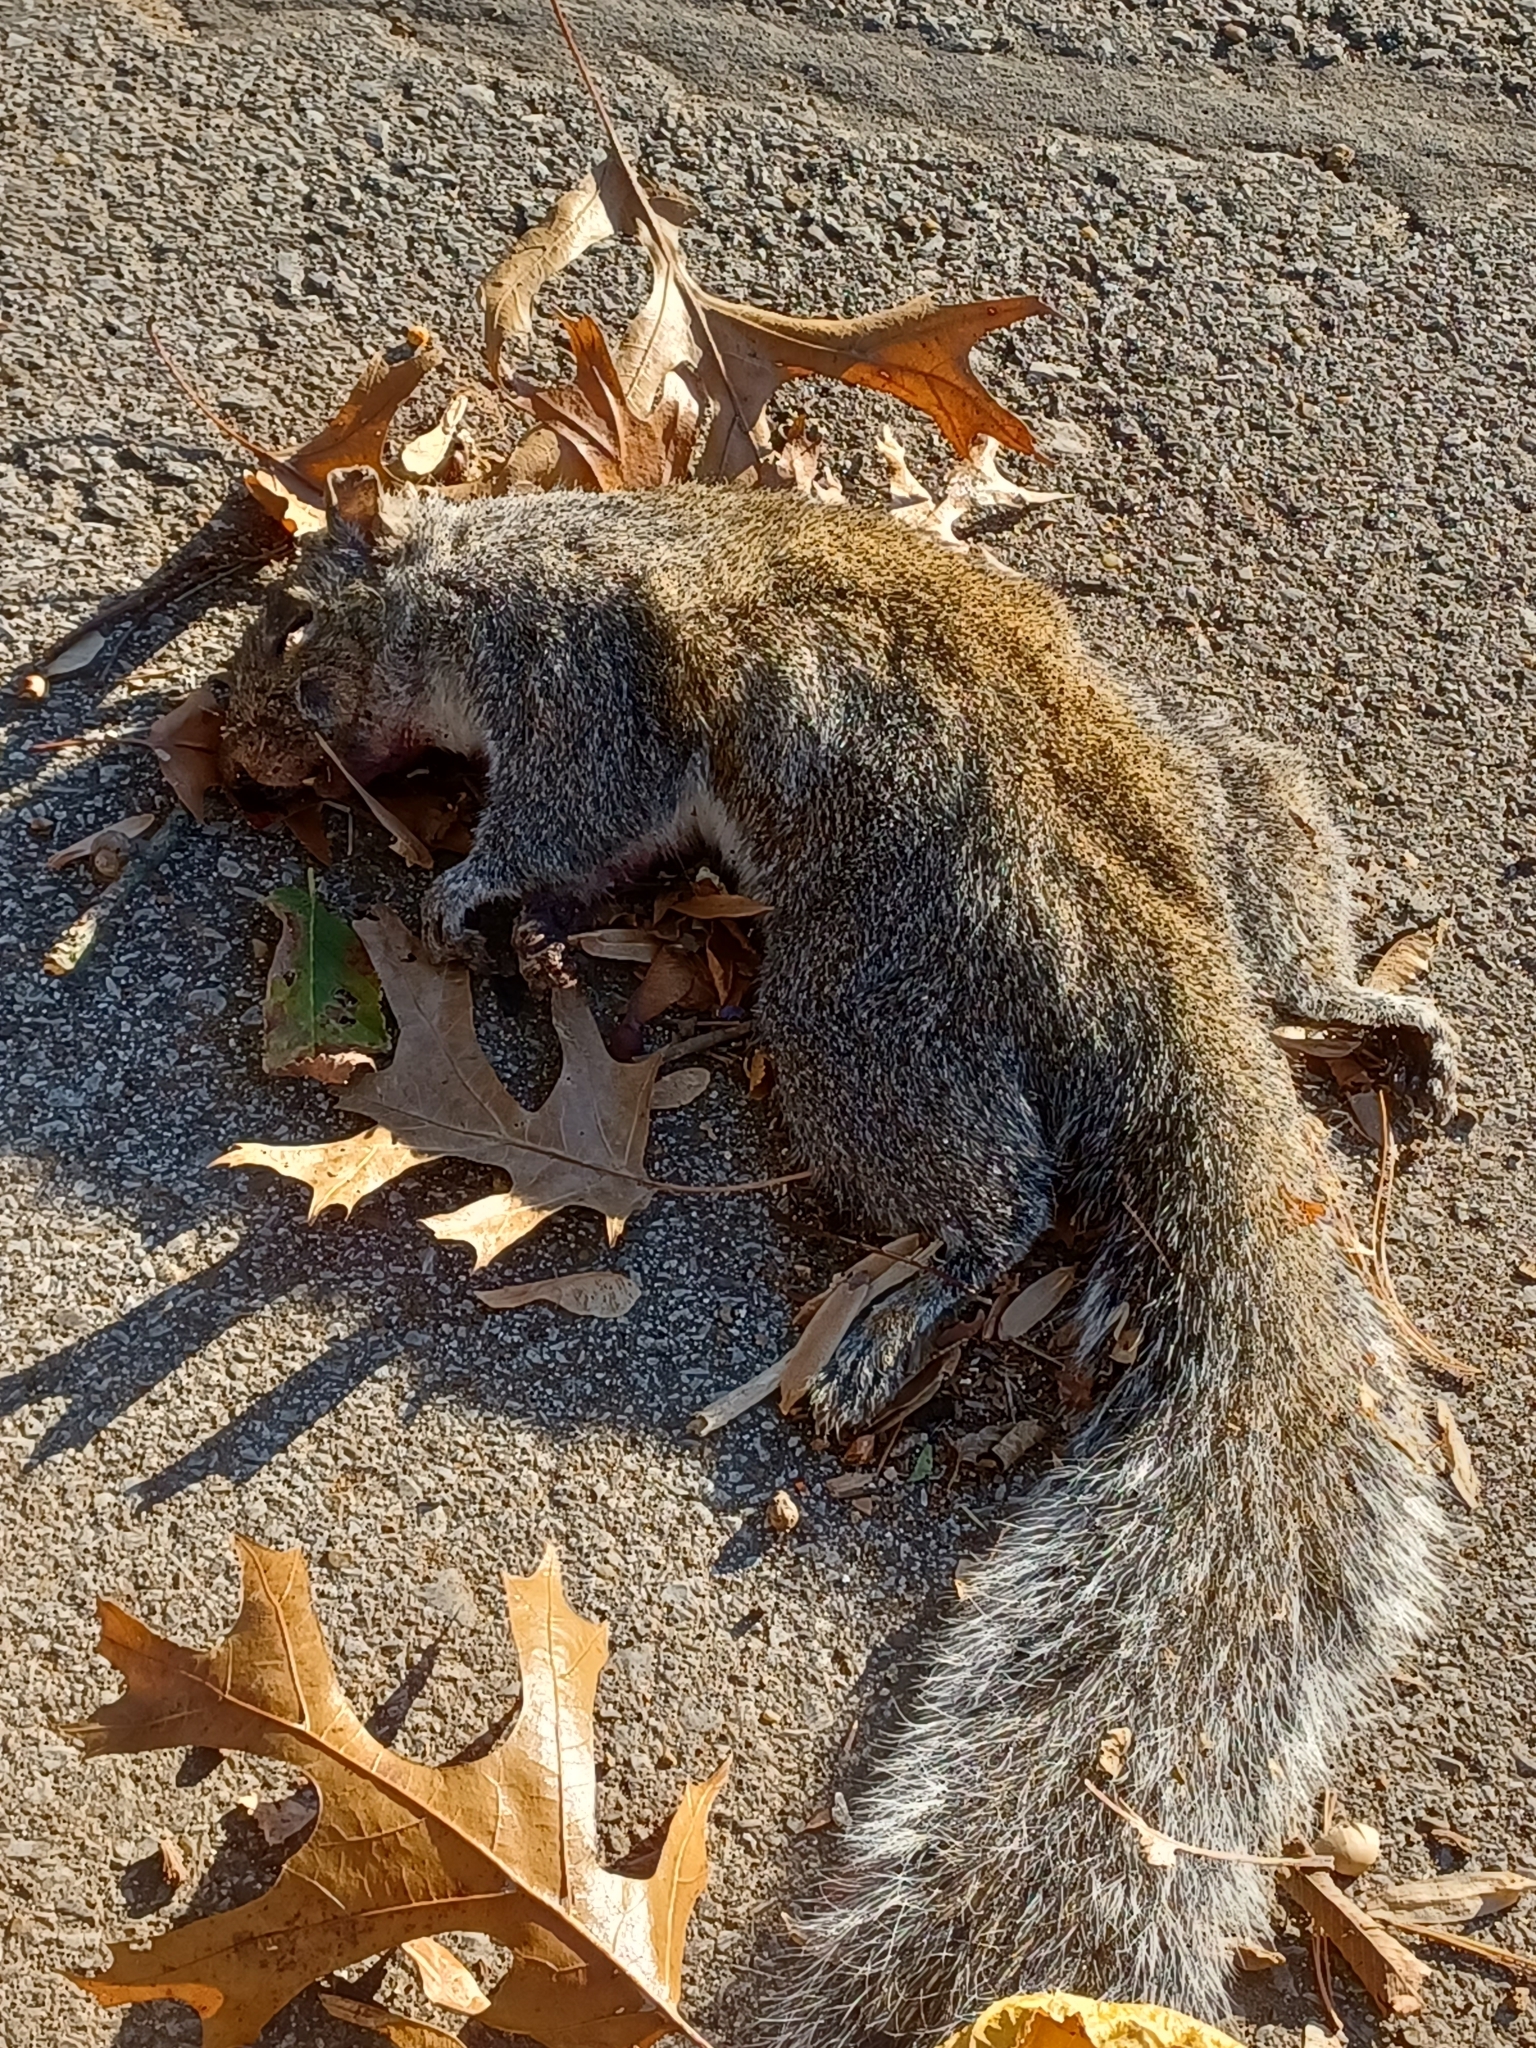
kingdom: Animalia
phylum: Chordata
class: Mammalia
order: Rodentia
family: Sciuridae
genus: Sciurus
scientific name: Sciurus carolinensis
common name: Eastern gray squirrel
